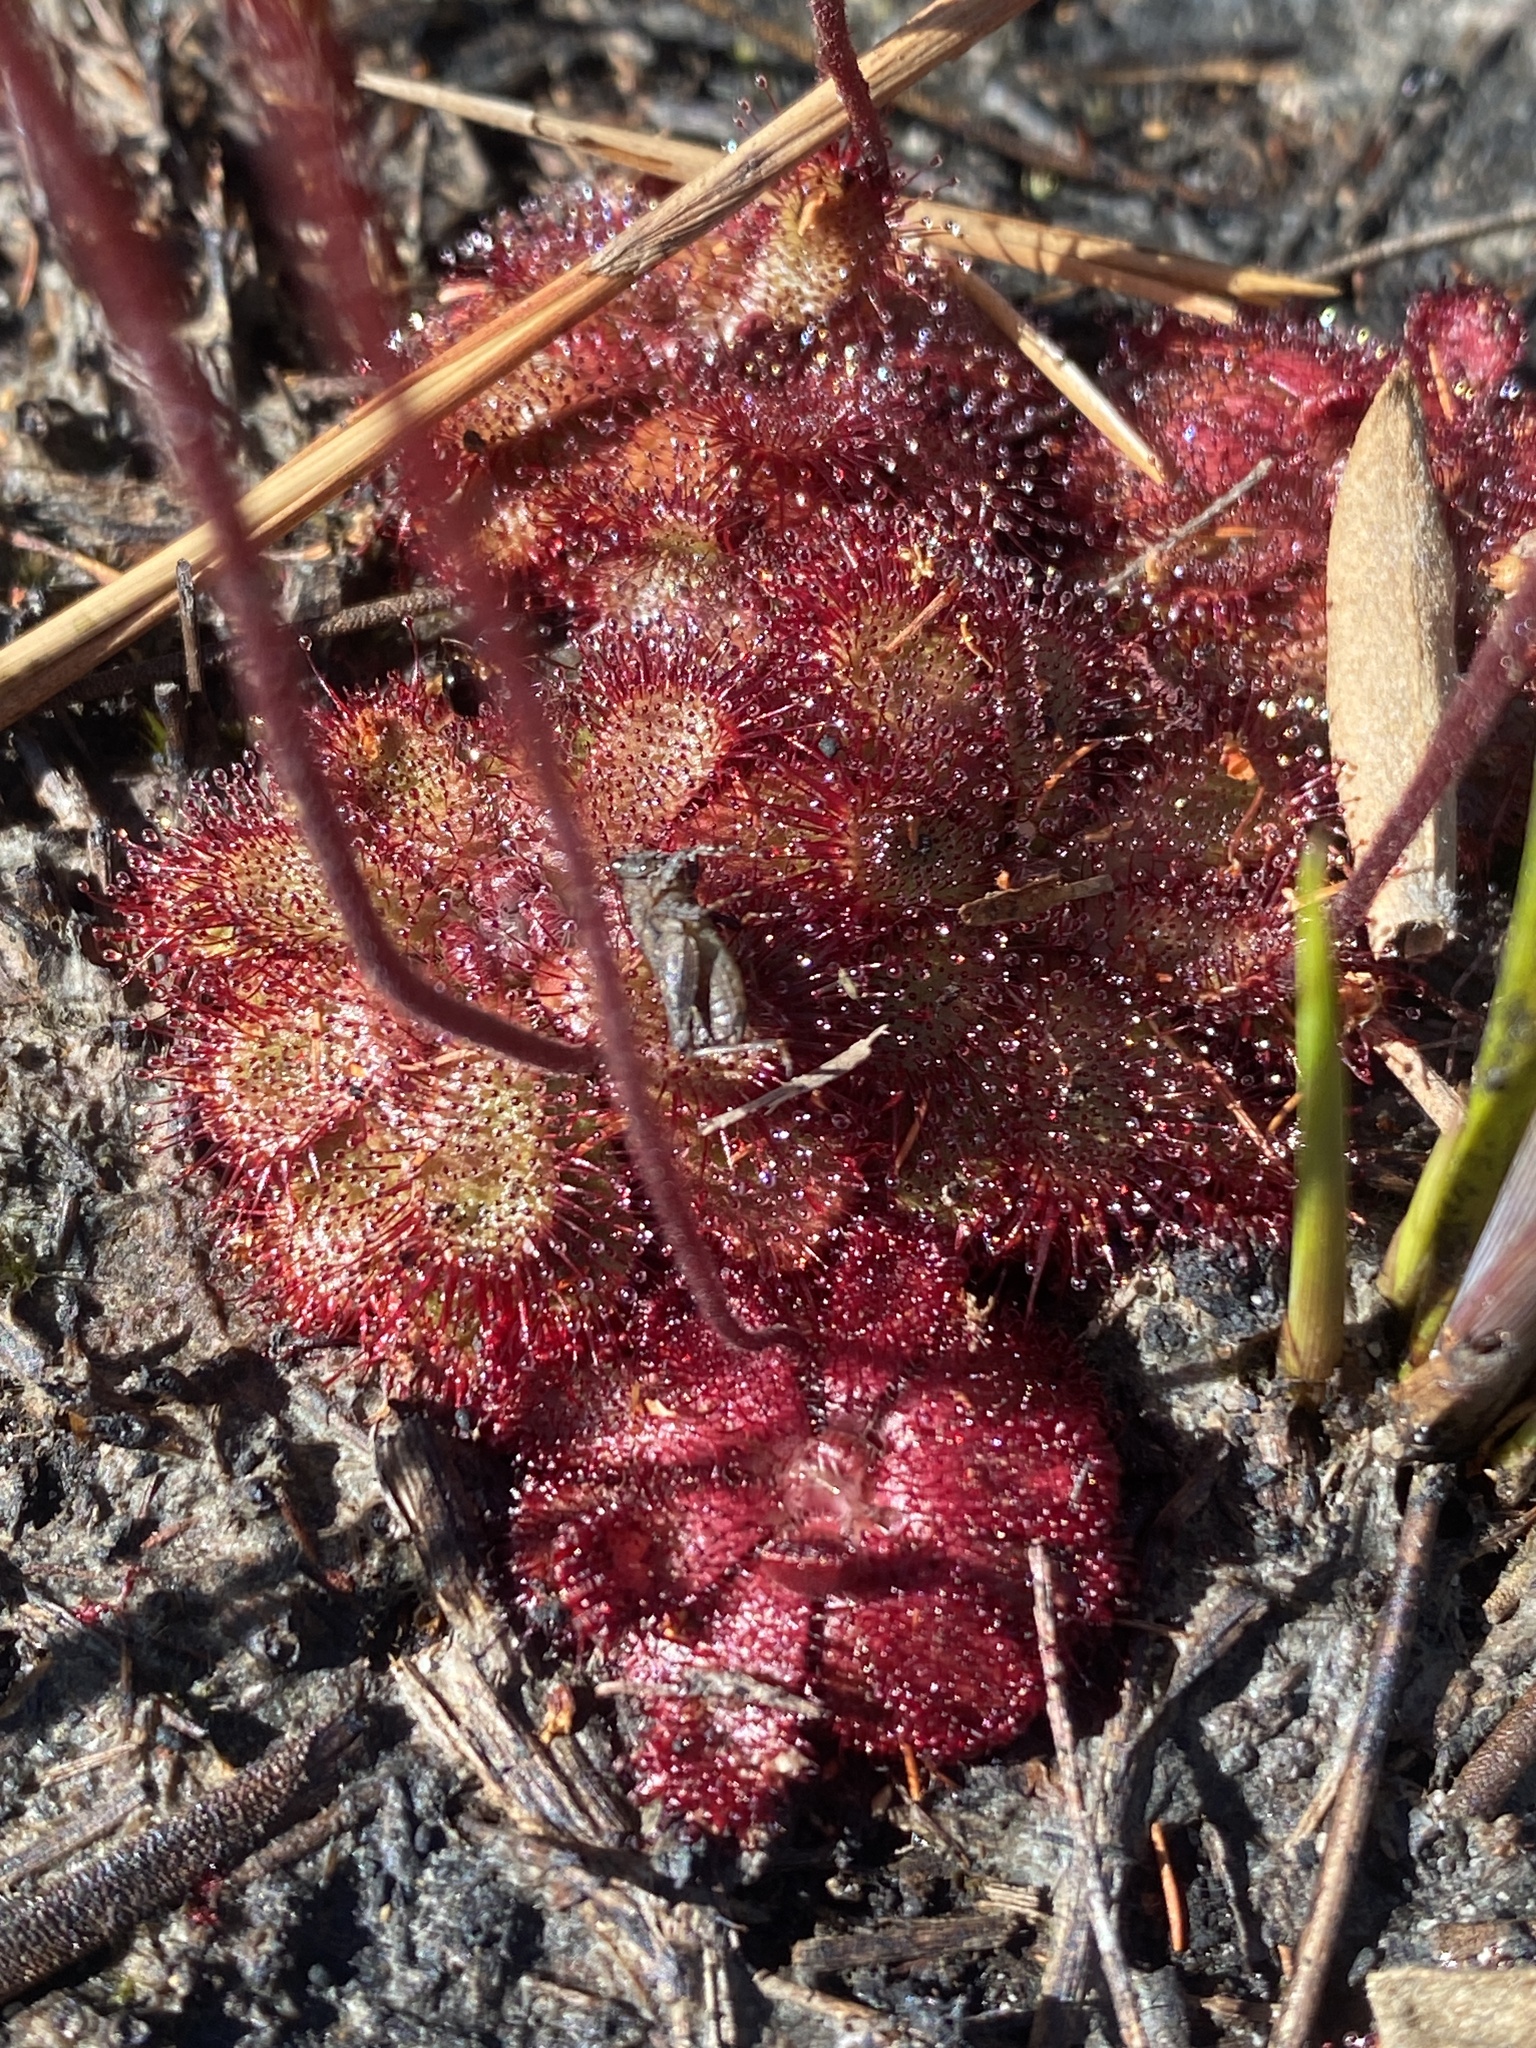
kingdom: Plantae
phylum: Tracheophyta
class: Magnoliopsida
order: Caryophyllales
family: Droseraceae
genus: Drosera
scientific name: Drosera cuneifolia
